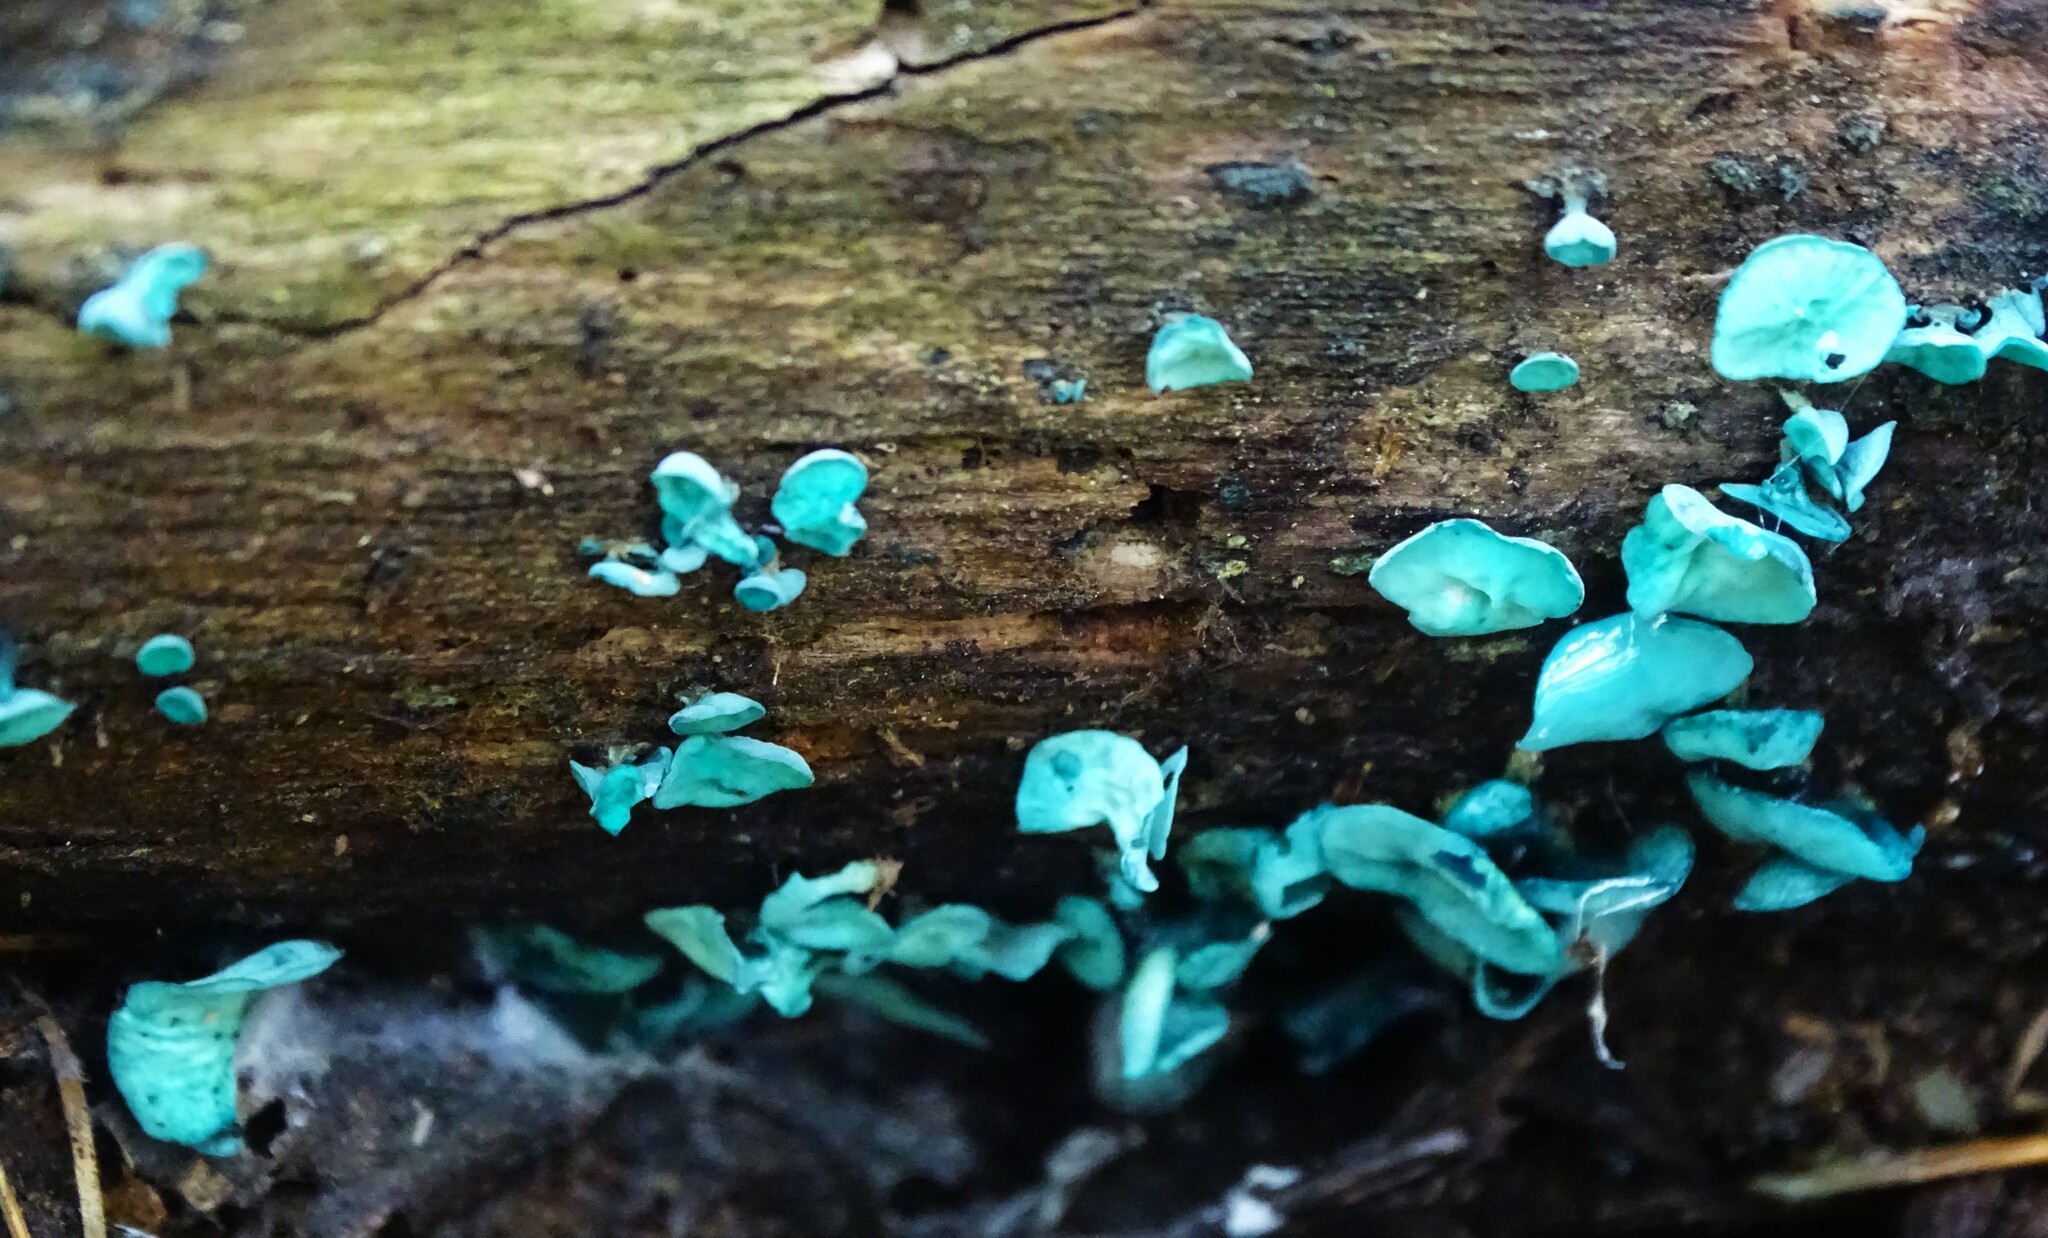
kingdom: Fungi
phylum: Ascomycota
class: Leotiomycetes
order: Helotiales
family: Chlorociboriaceae
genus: Chlorociboria
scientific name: Chlorociboria aeruginascens
